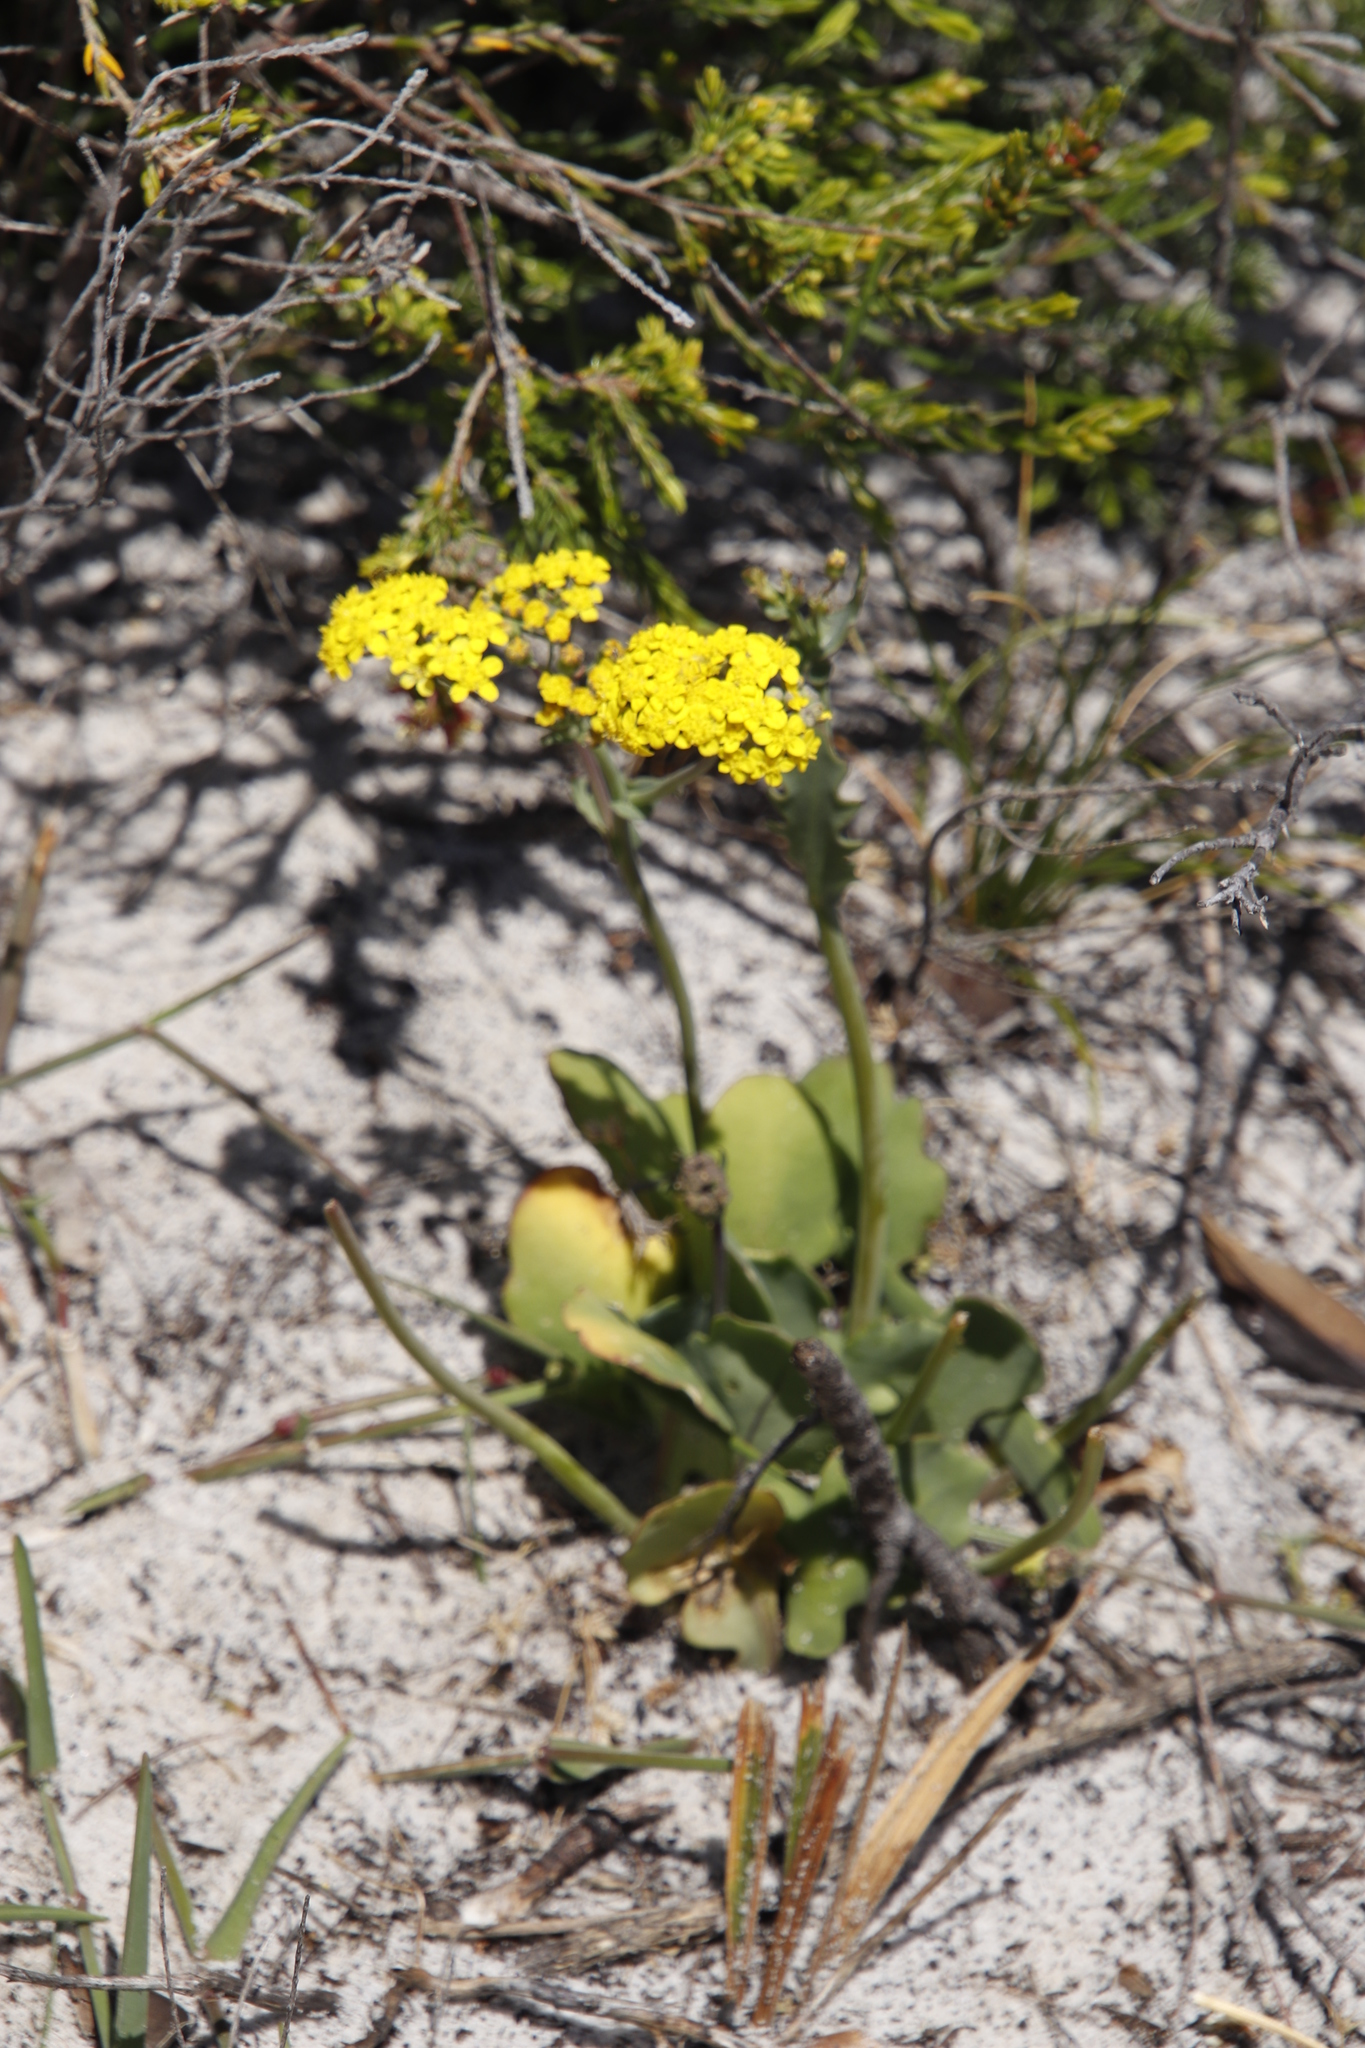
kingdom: Plantae
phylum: Tracheophyta
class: Magnoliopsida
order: Asterales
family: Asteraceae
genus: Gymnodiscus
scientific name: Gymnodiscus capillaris
